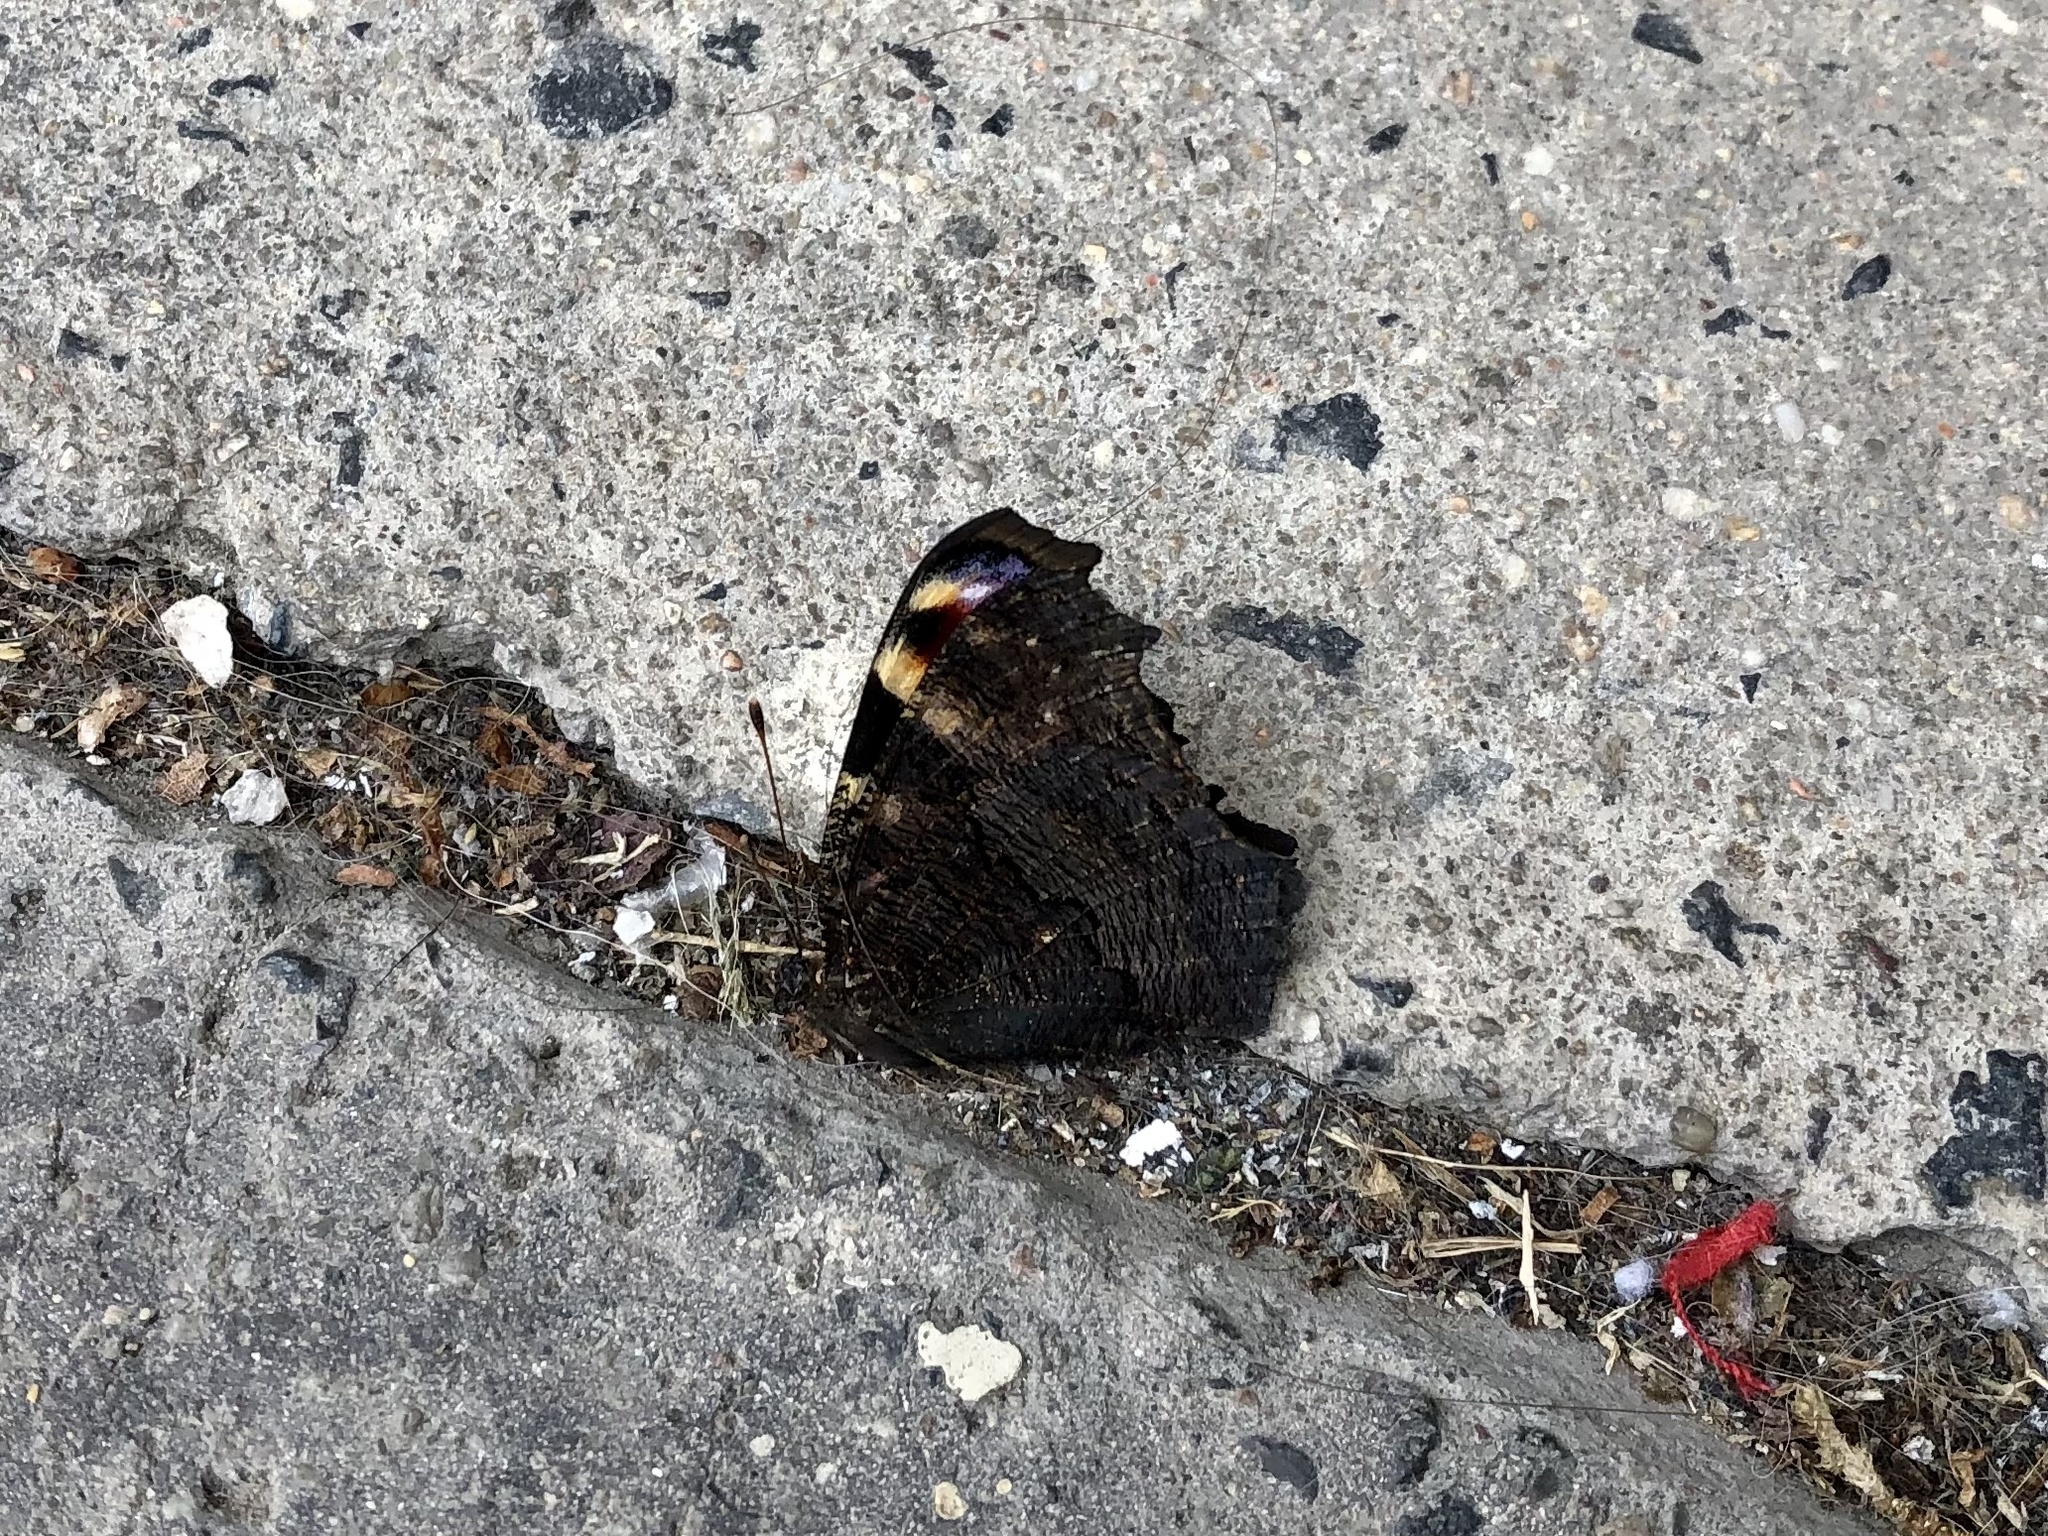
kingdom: Animalia
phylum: Arthropoda
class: Insecta
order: Lepidoptera
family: Nymphalidae
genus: Aglais
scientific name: Aglais io
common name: Peacock
